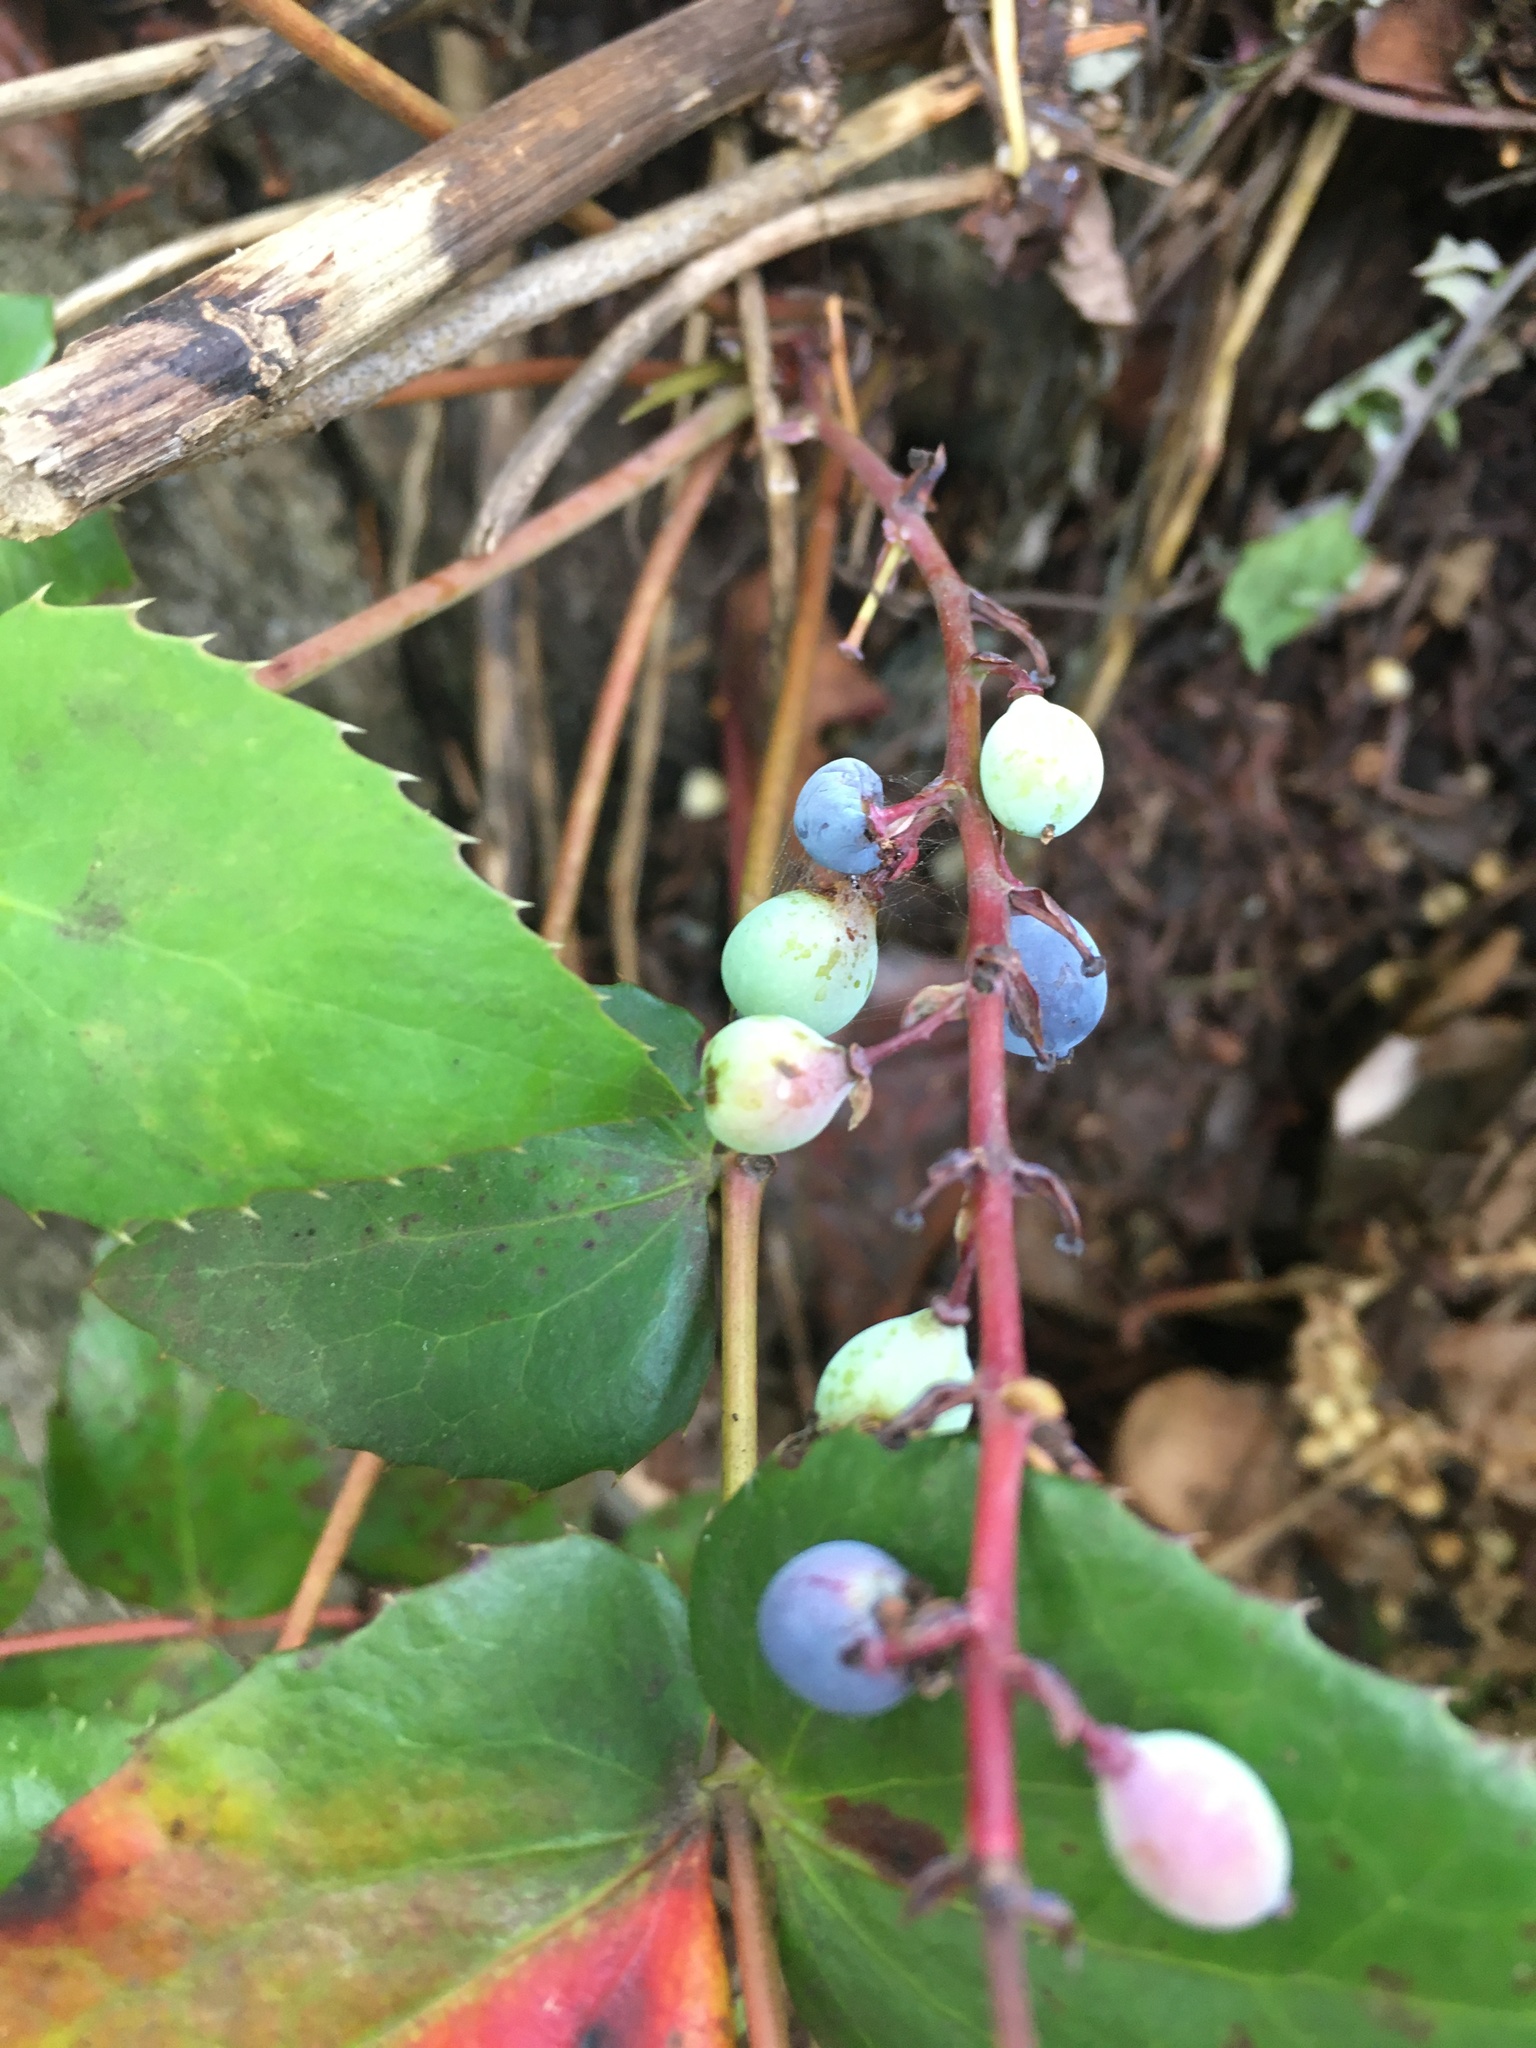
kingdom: Plantae
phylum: Tracheophyta
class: Magnoliopsida
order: Ranunculales
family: Berberidaceae
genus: Mahonia
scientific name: Mahonia nervosa
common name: Cascade oregon-grape
